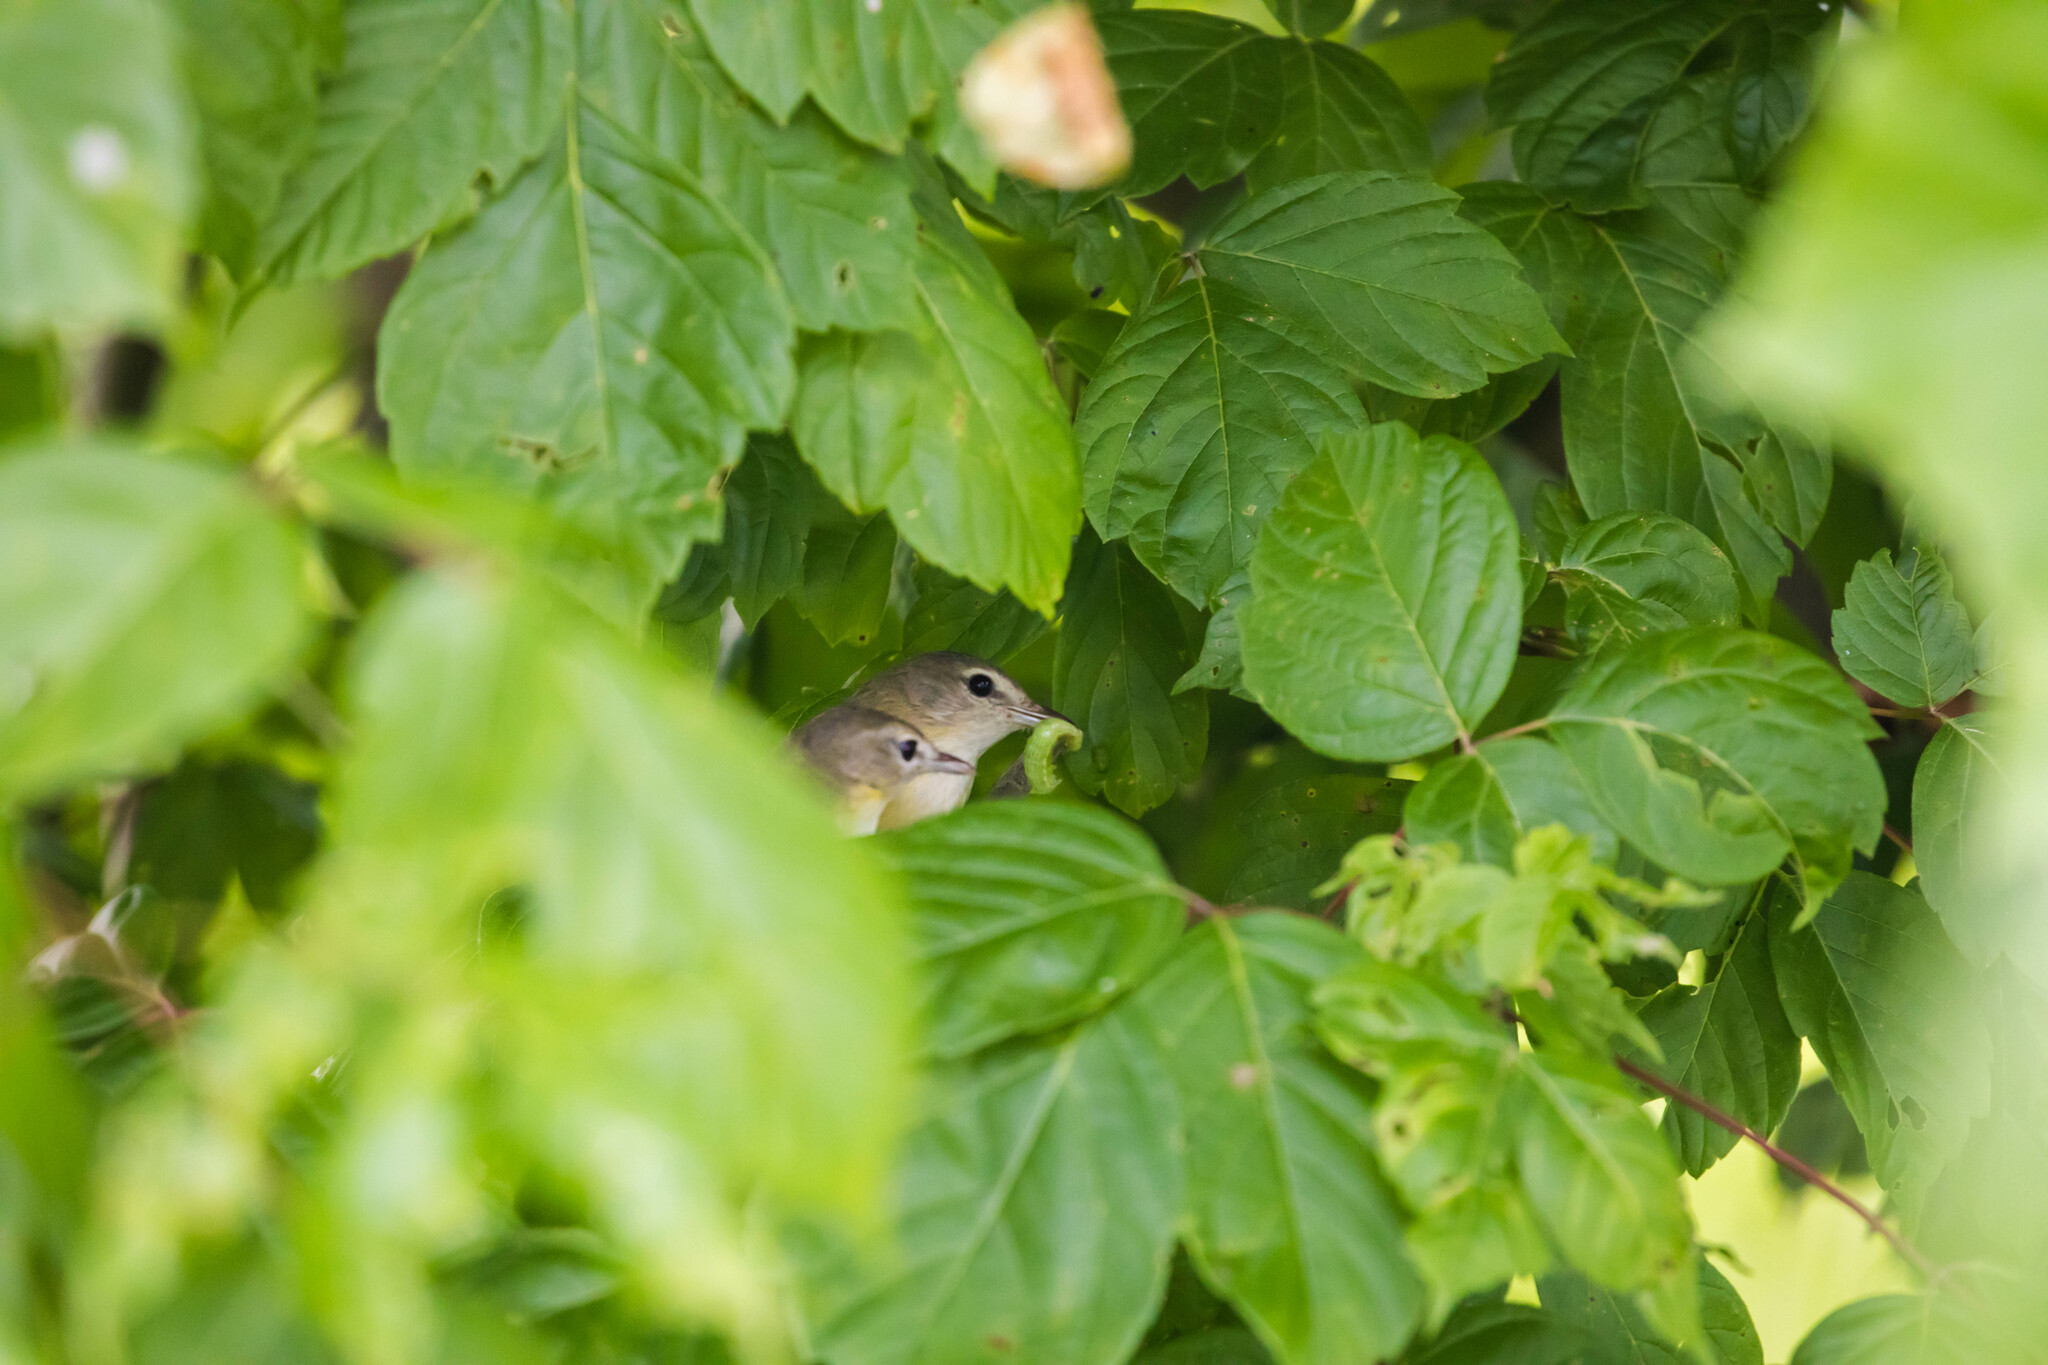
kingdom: Animalia
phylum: Chordata
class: Aves
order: Passeriformes
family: Vireonidae
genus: Vireo
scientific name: Vireo bellii
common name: Bell's vireo
